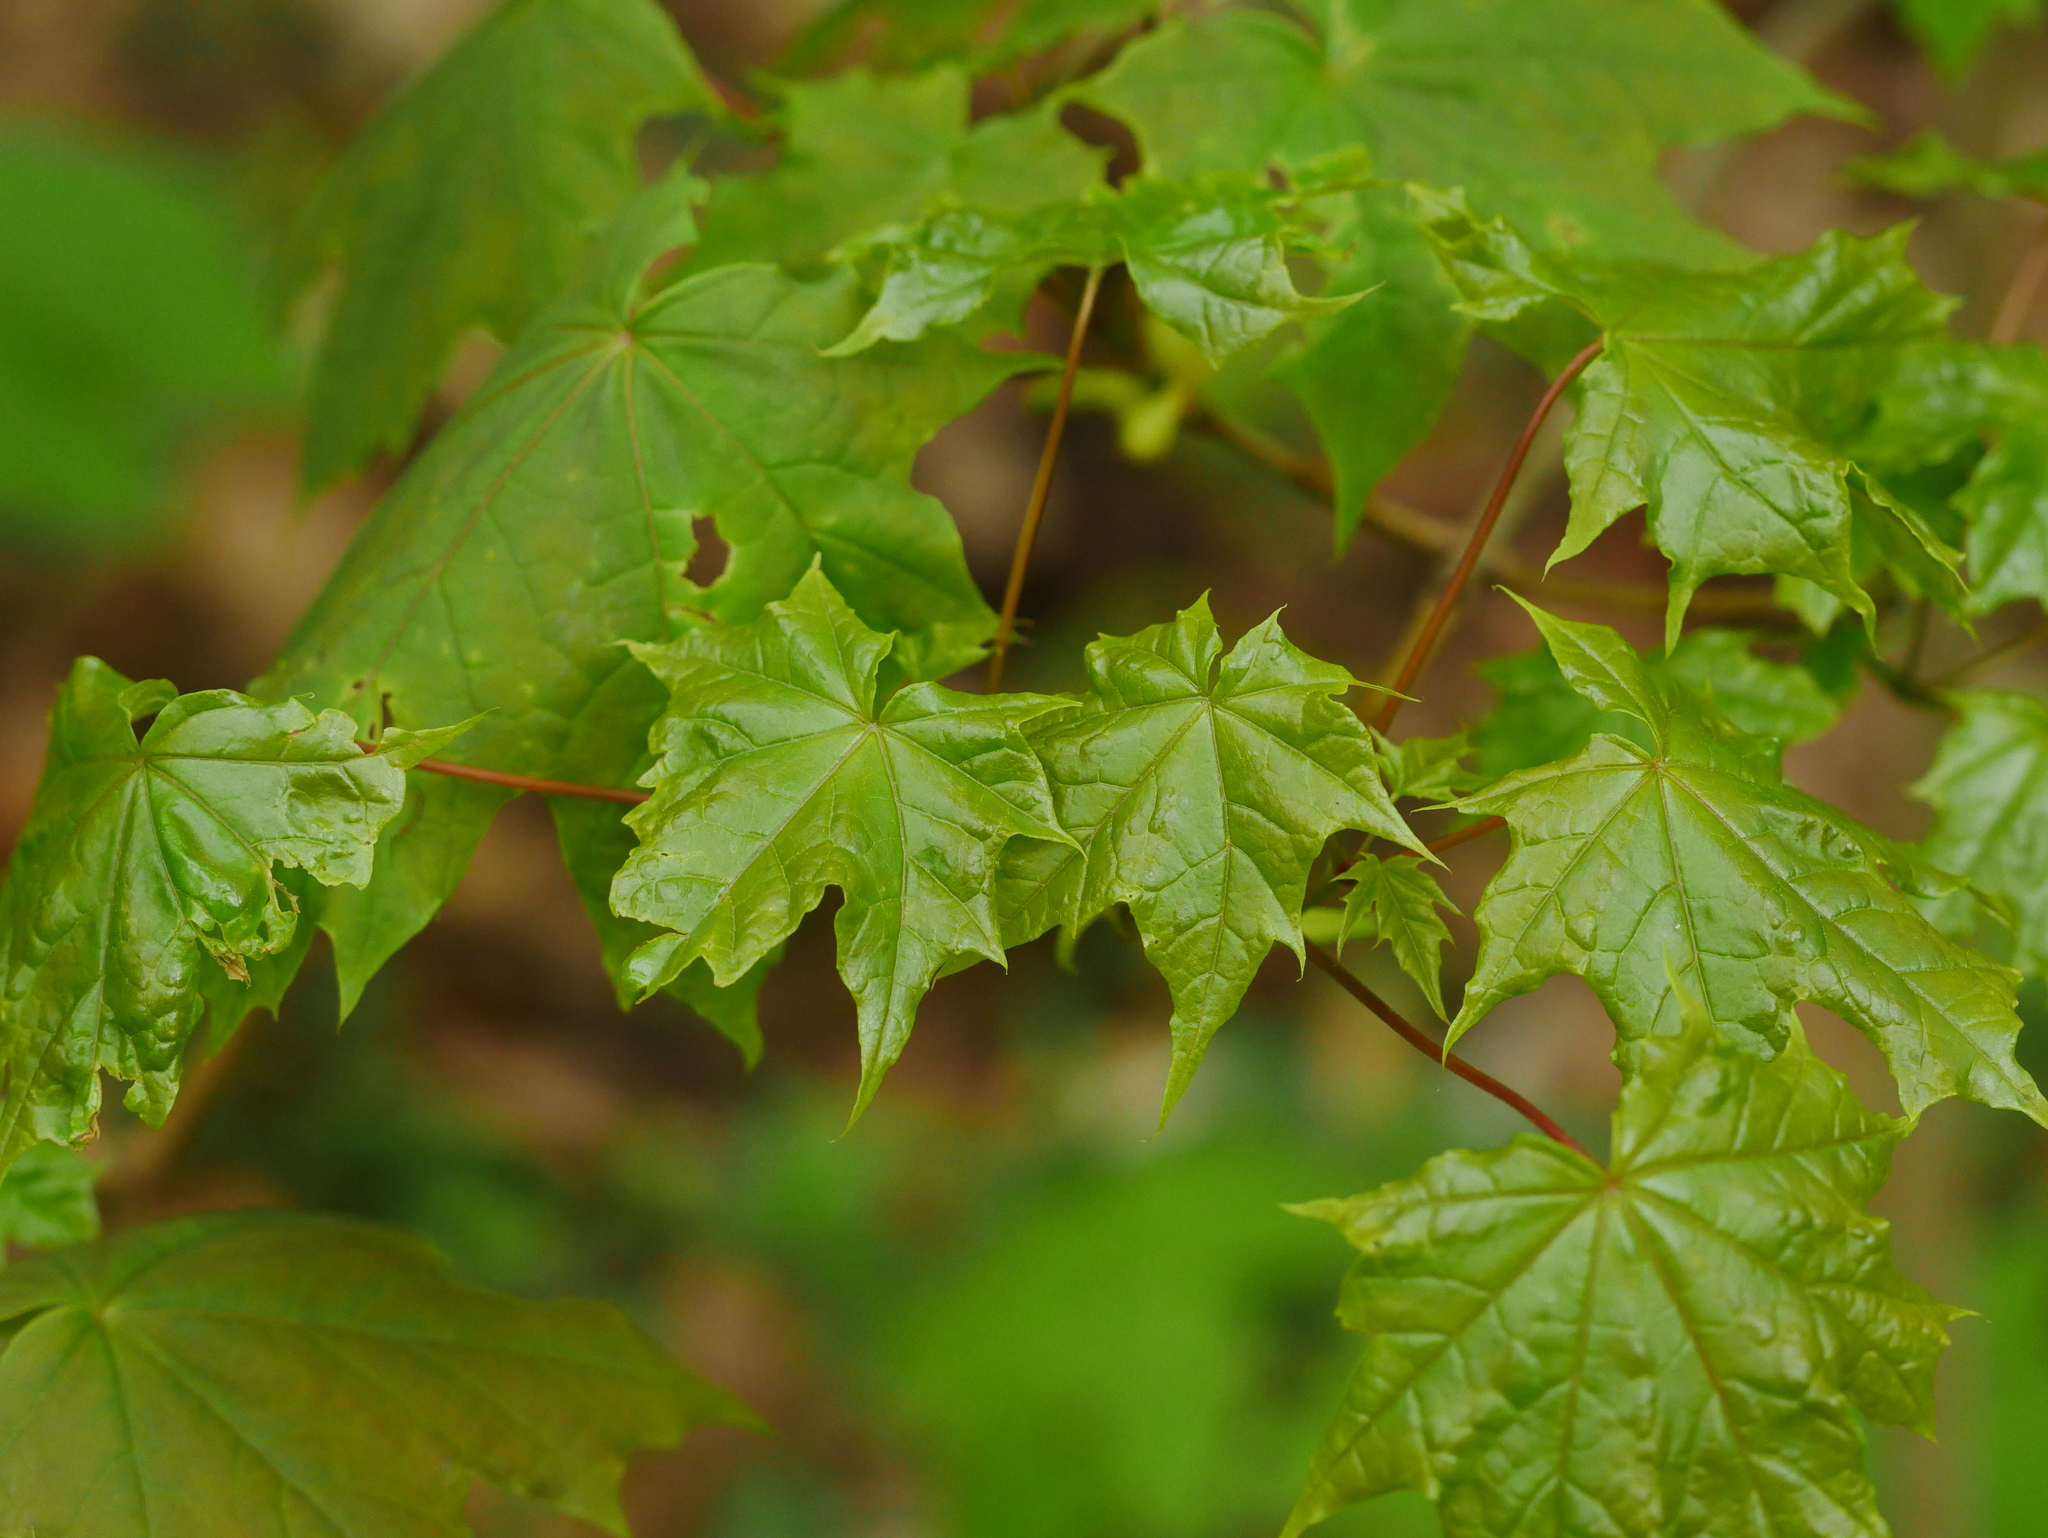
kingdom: Plantae
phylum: Tracheophyta
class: Magnoliopsida
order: Sapindales
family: Sapindaceae
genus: Acer
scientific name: Acer platanoides
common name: Norway maple
